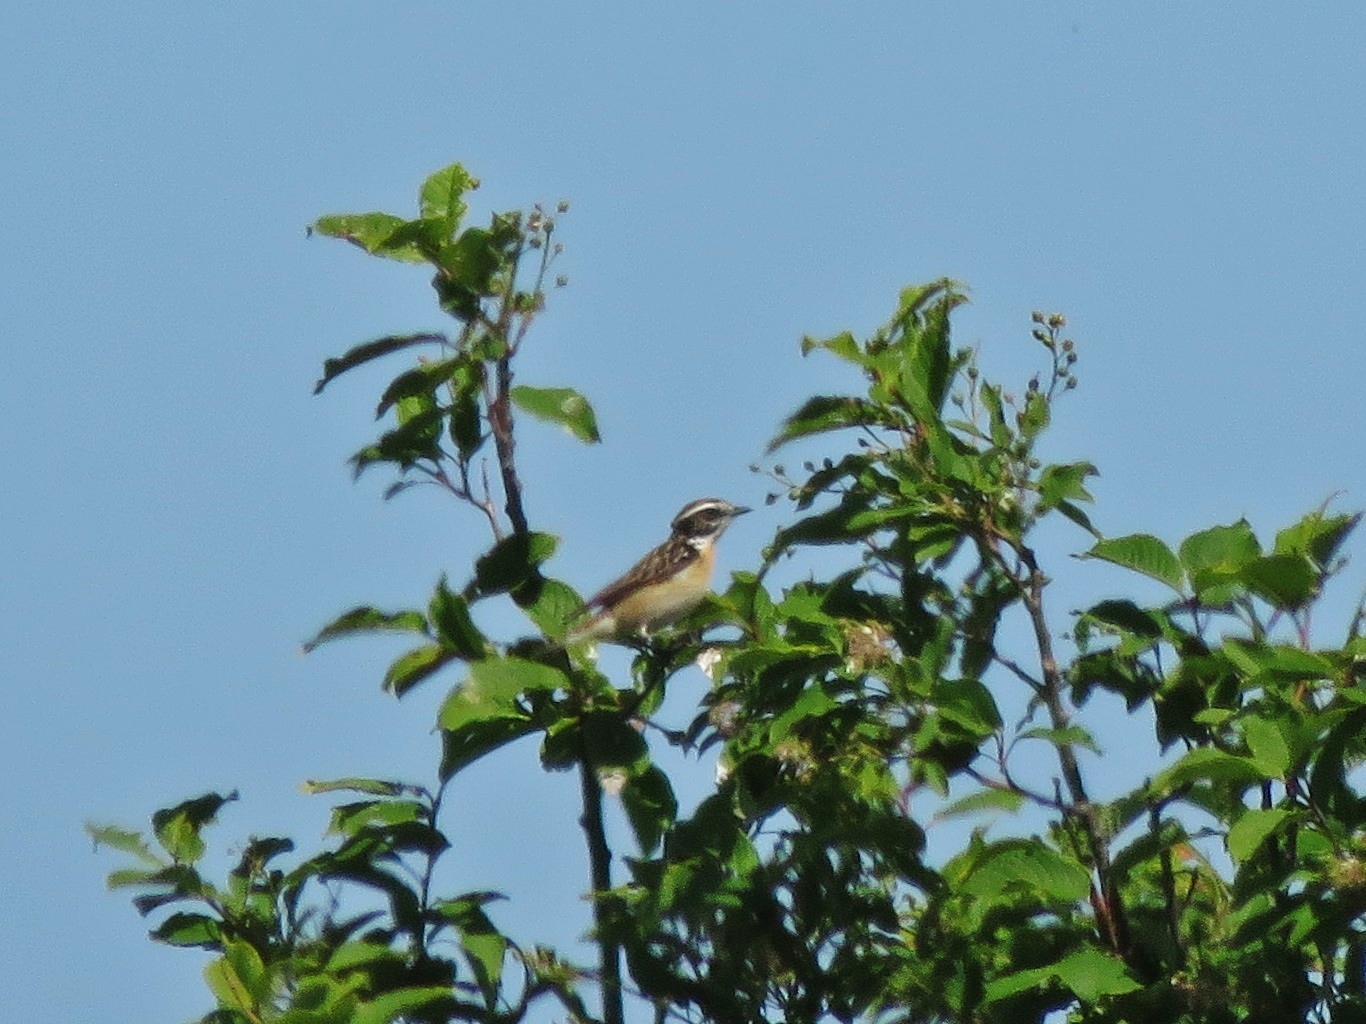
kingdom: Animalia
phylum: Chordata
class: Aves
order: Passeriformes
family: Muscicapidae
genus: Saxicola
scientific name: Saxicola rubetra
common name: Whinchat
